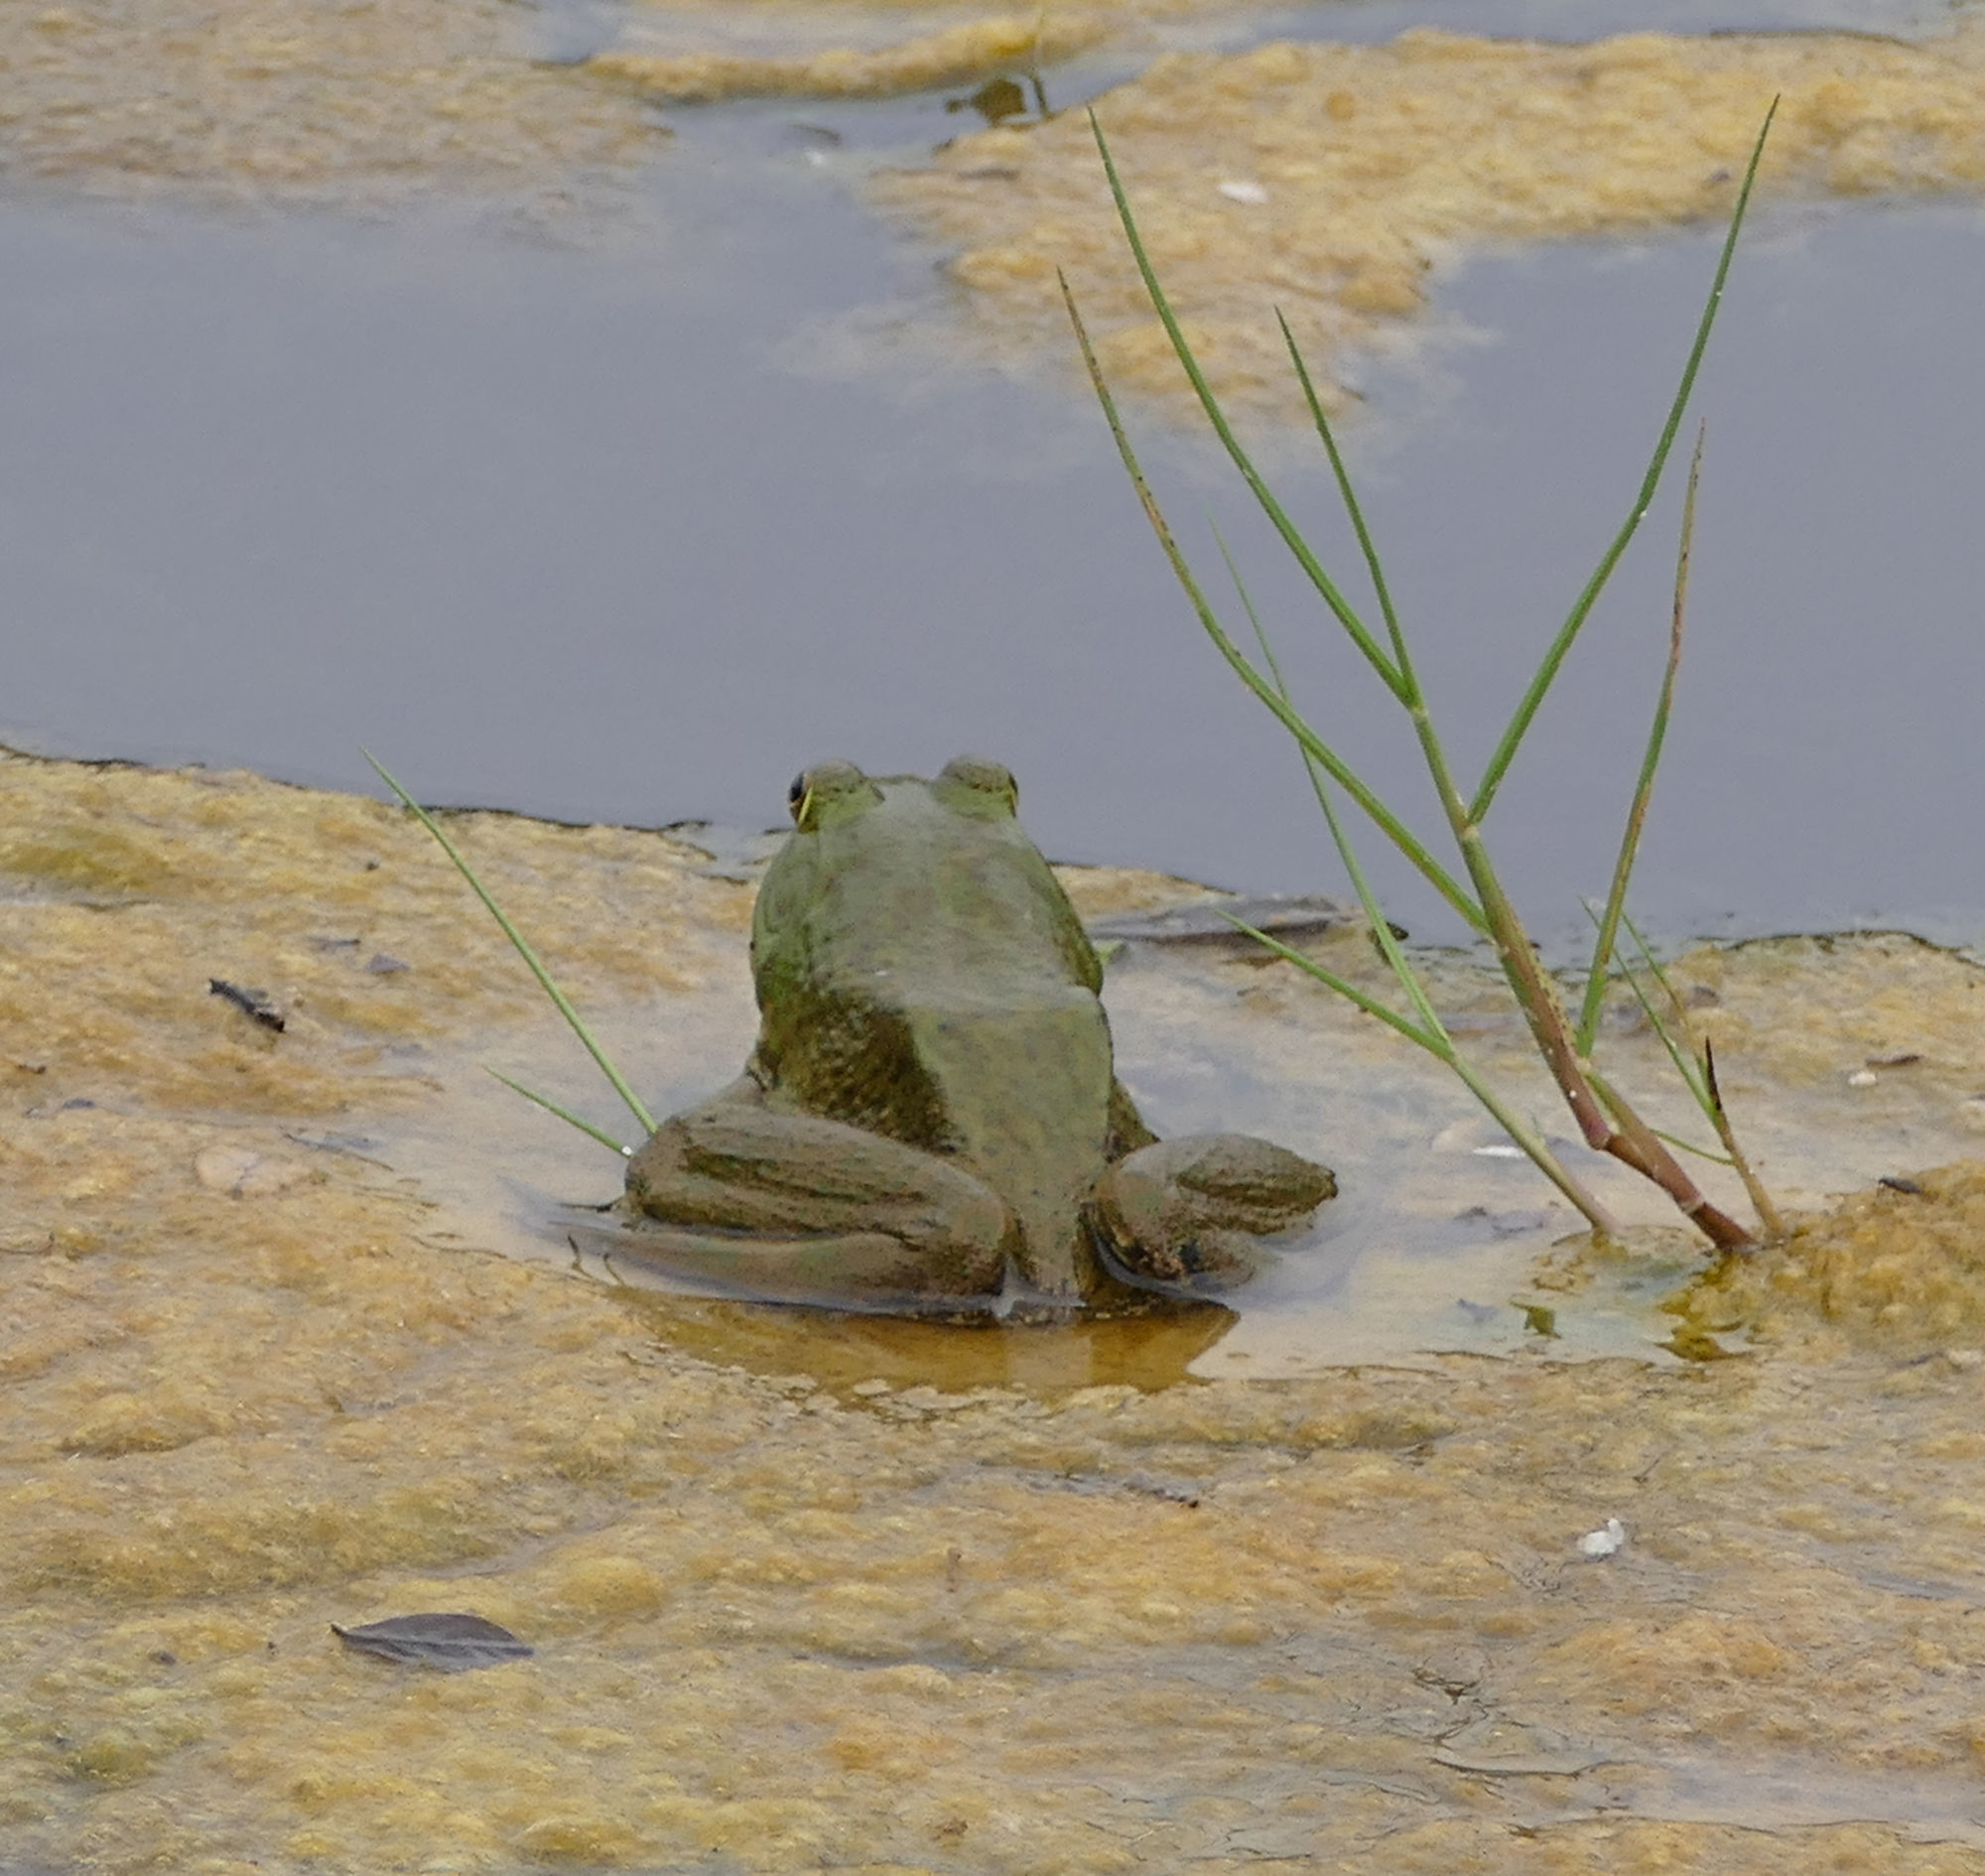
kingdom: Animalia
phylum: Chordata
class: Amphibia
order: Anura
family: Ranidae
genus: Lithobates
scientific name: Lithobates catesbeianus
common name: American bullfrog
